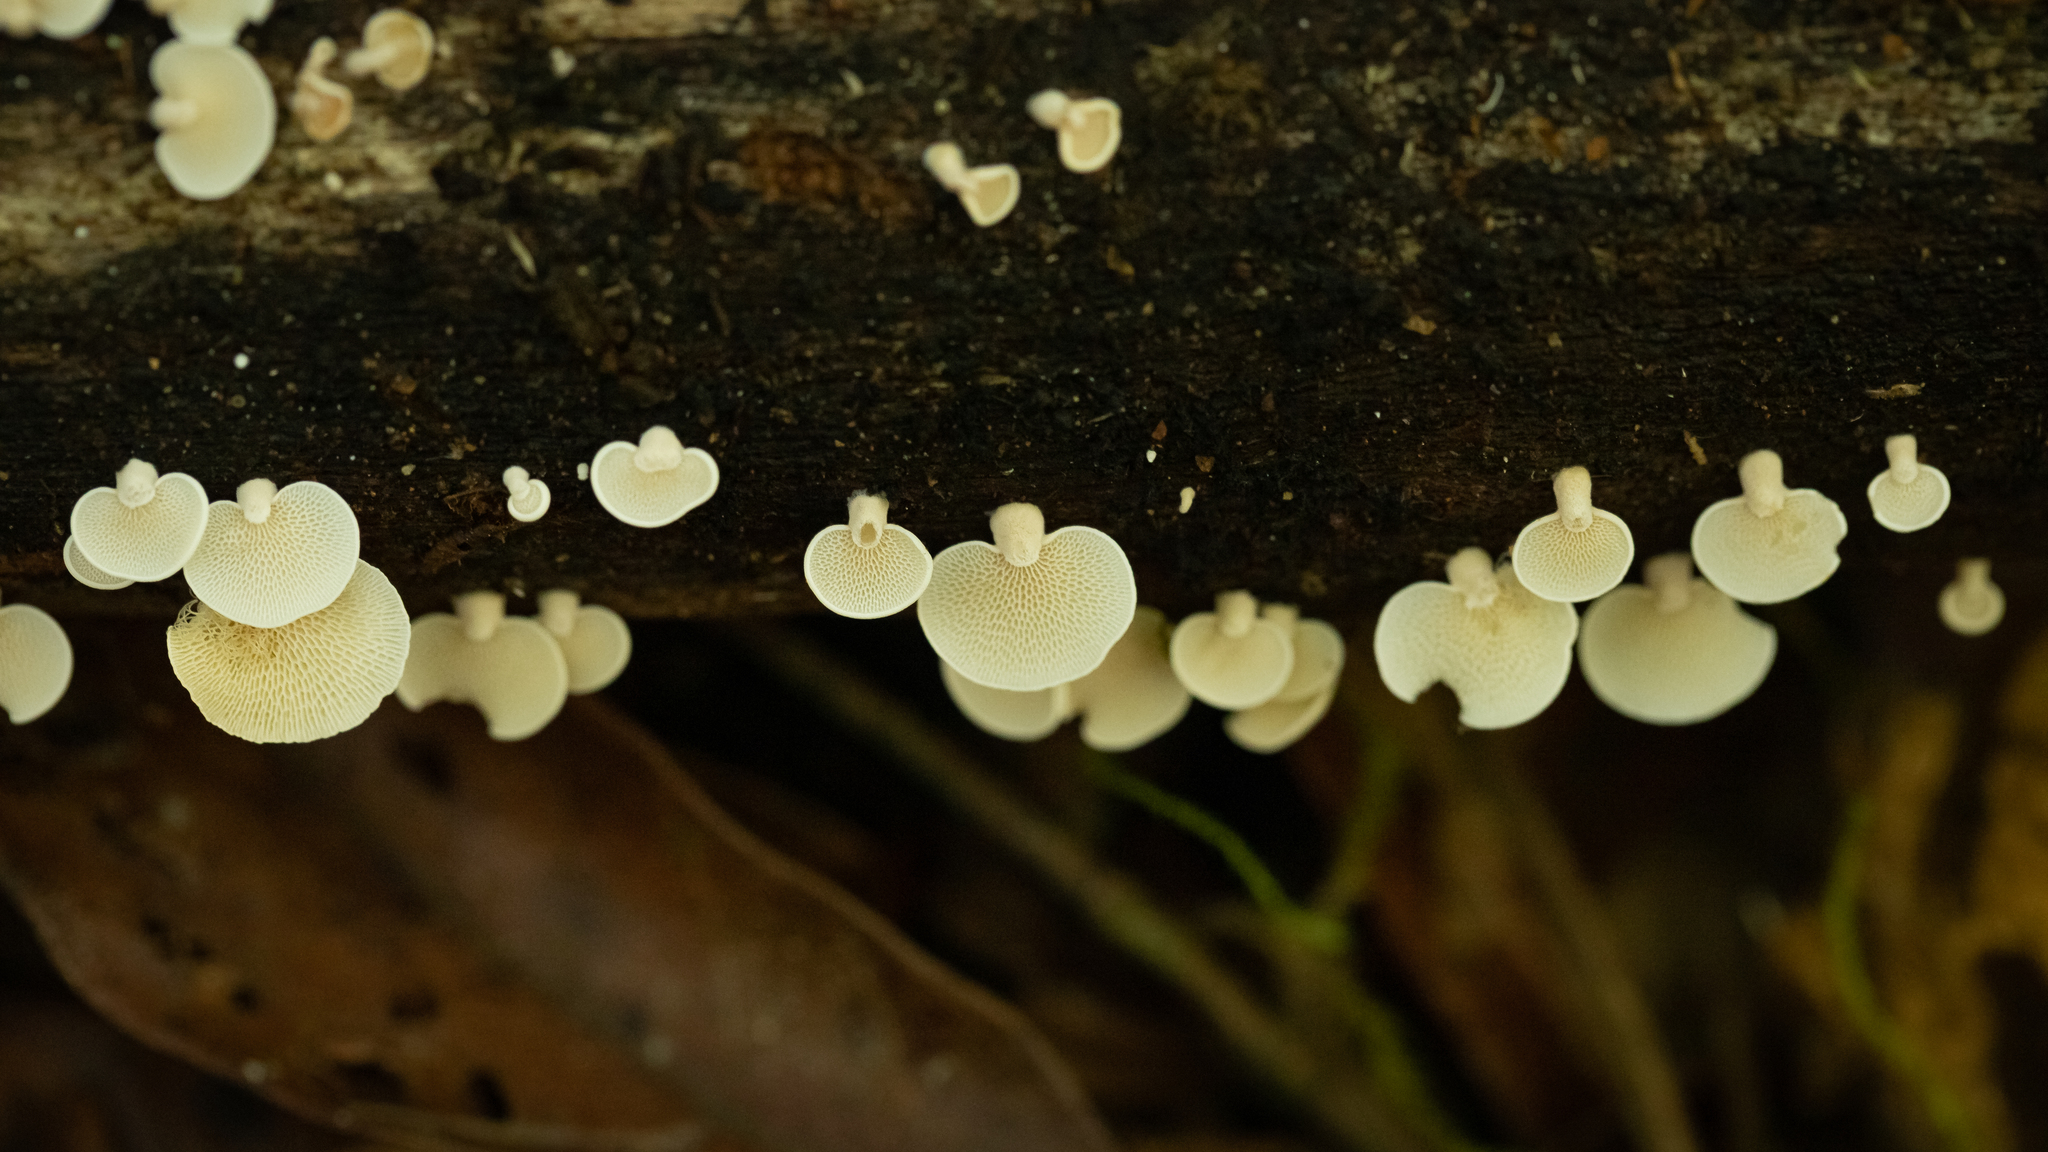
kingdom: Fungi
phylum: Basidiomycota
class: Agaricomycetes
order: Agaricales
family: Mycenaceae
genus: Panellus
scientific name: Panellus pusillus
